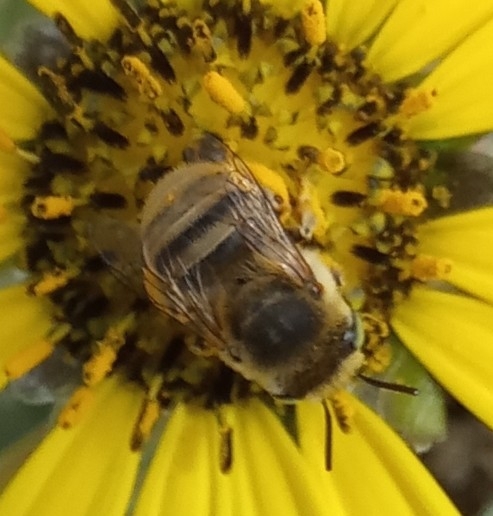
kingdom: Animalia
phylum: Arthropoda
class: Insecta
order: Hymenoptera
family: Apidae
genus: Anthophora
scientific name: Anthophora bimaculata
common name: Green-eyed flower bee
